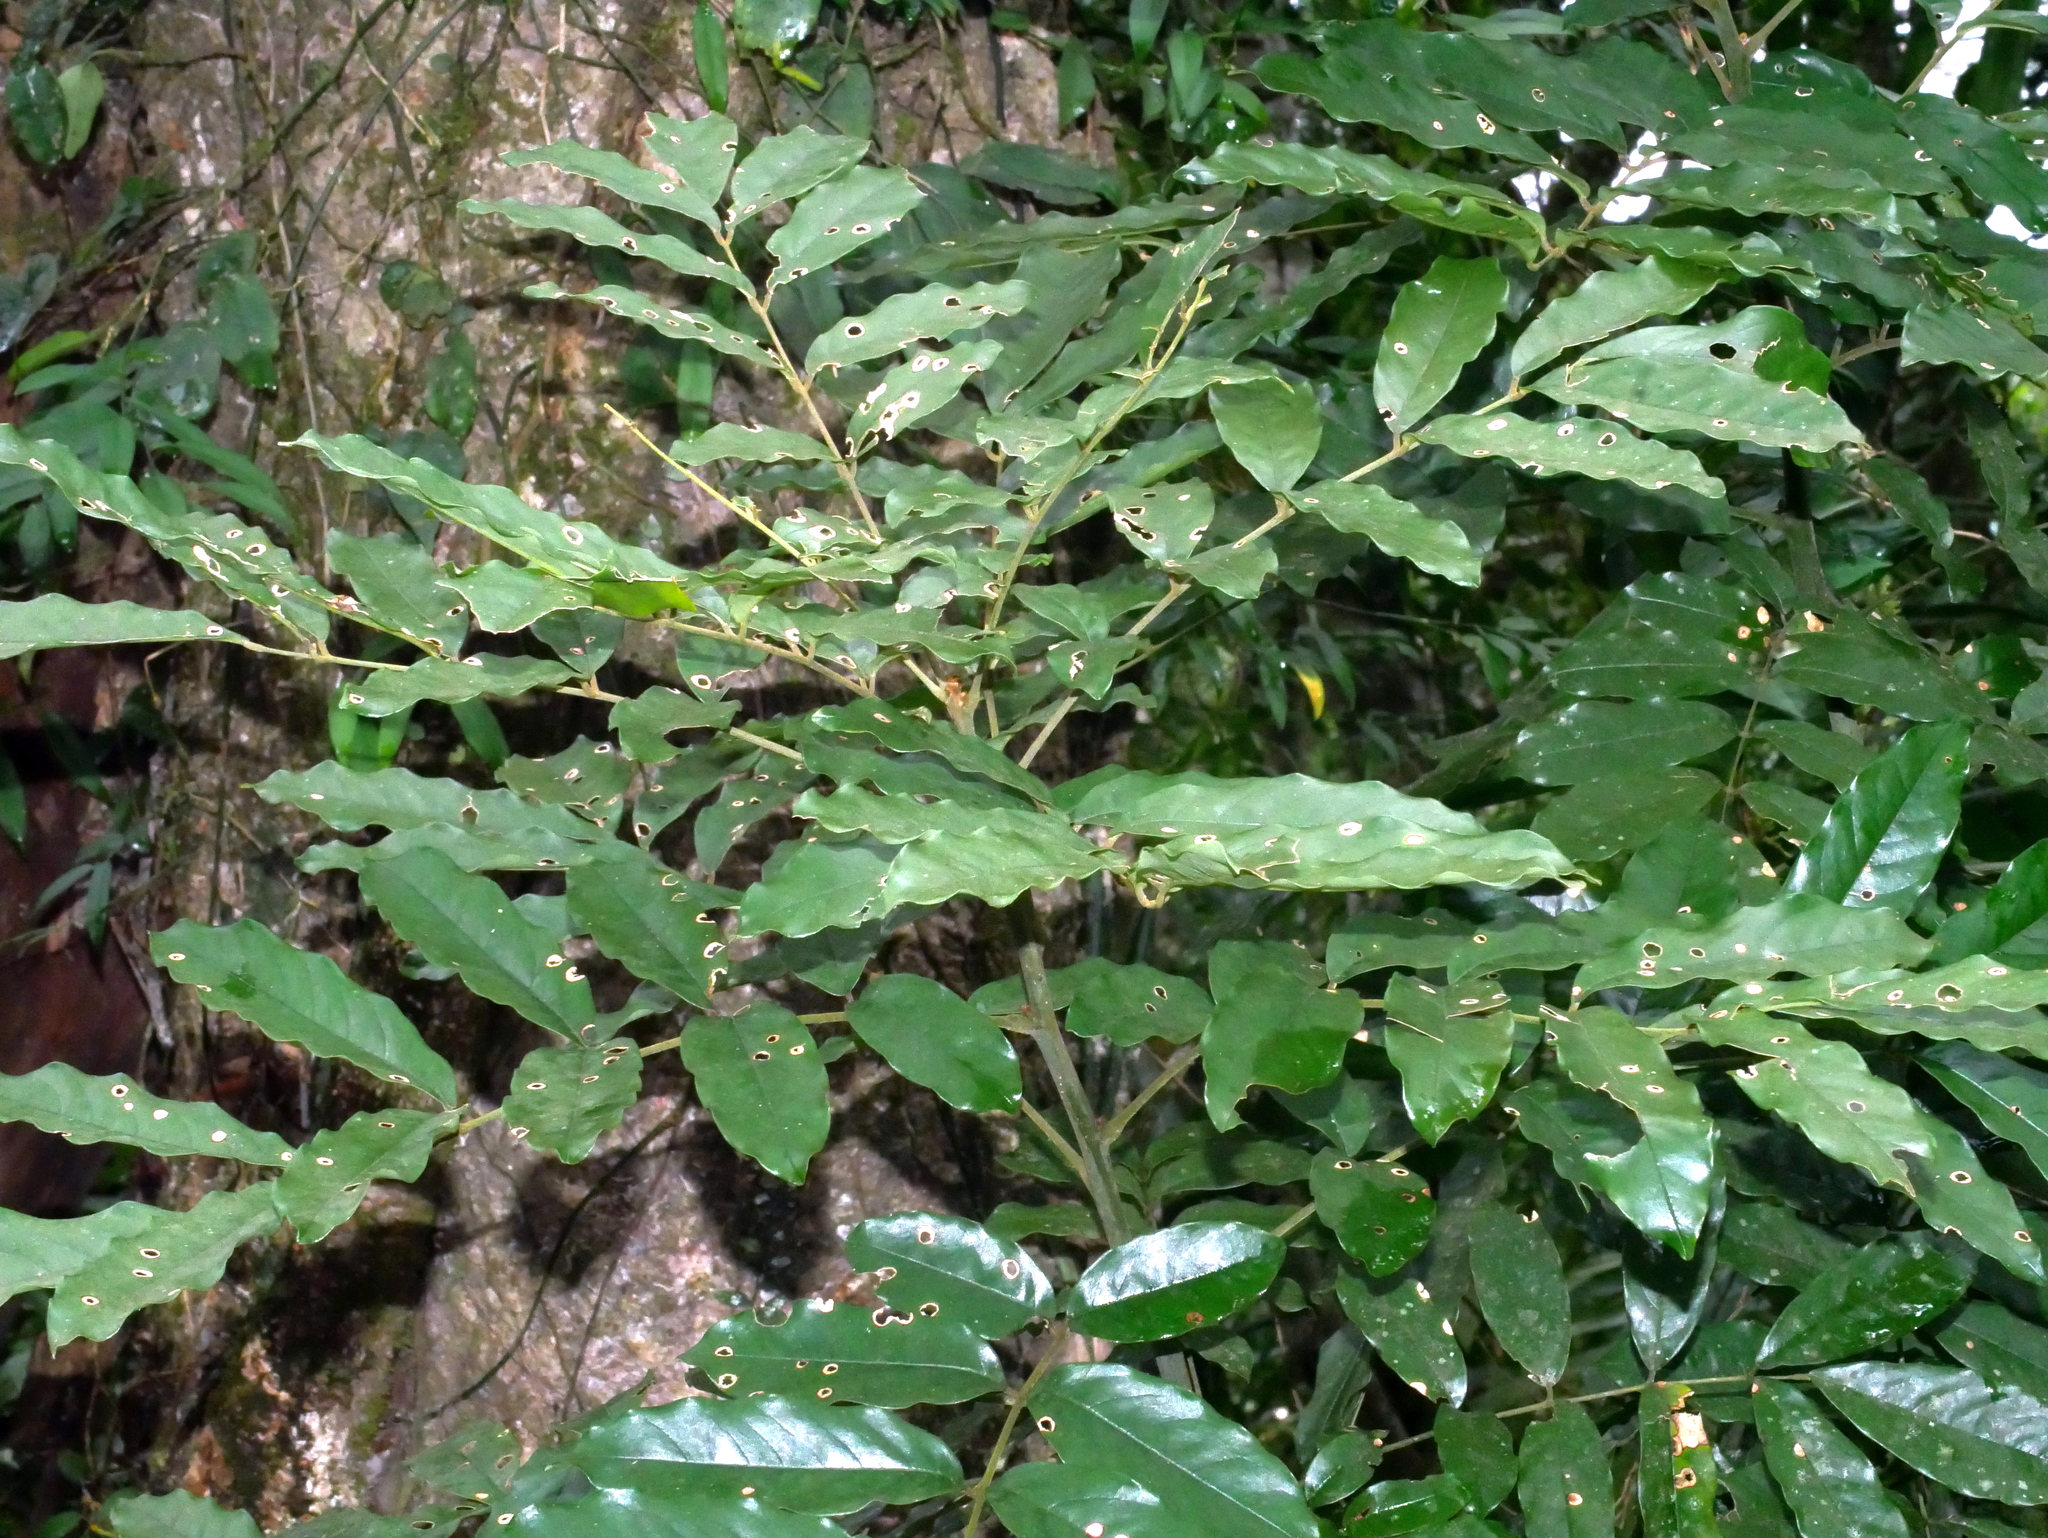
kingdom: Plantae
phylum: Tracheophyta
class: Magnoliopsida
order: Fabales
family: Fabaceae
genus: Ormosia
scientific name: Ormosia hengchuniana
